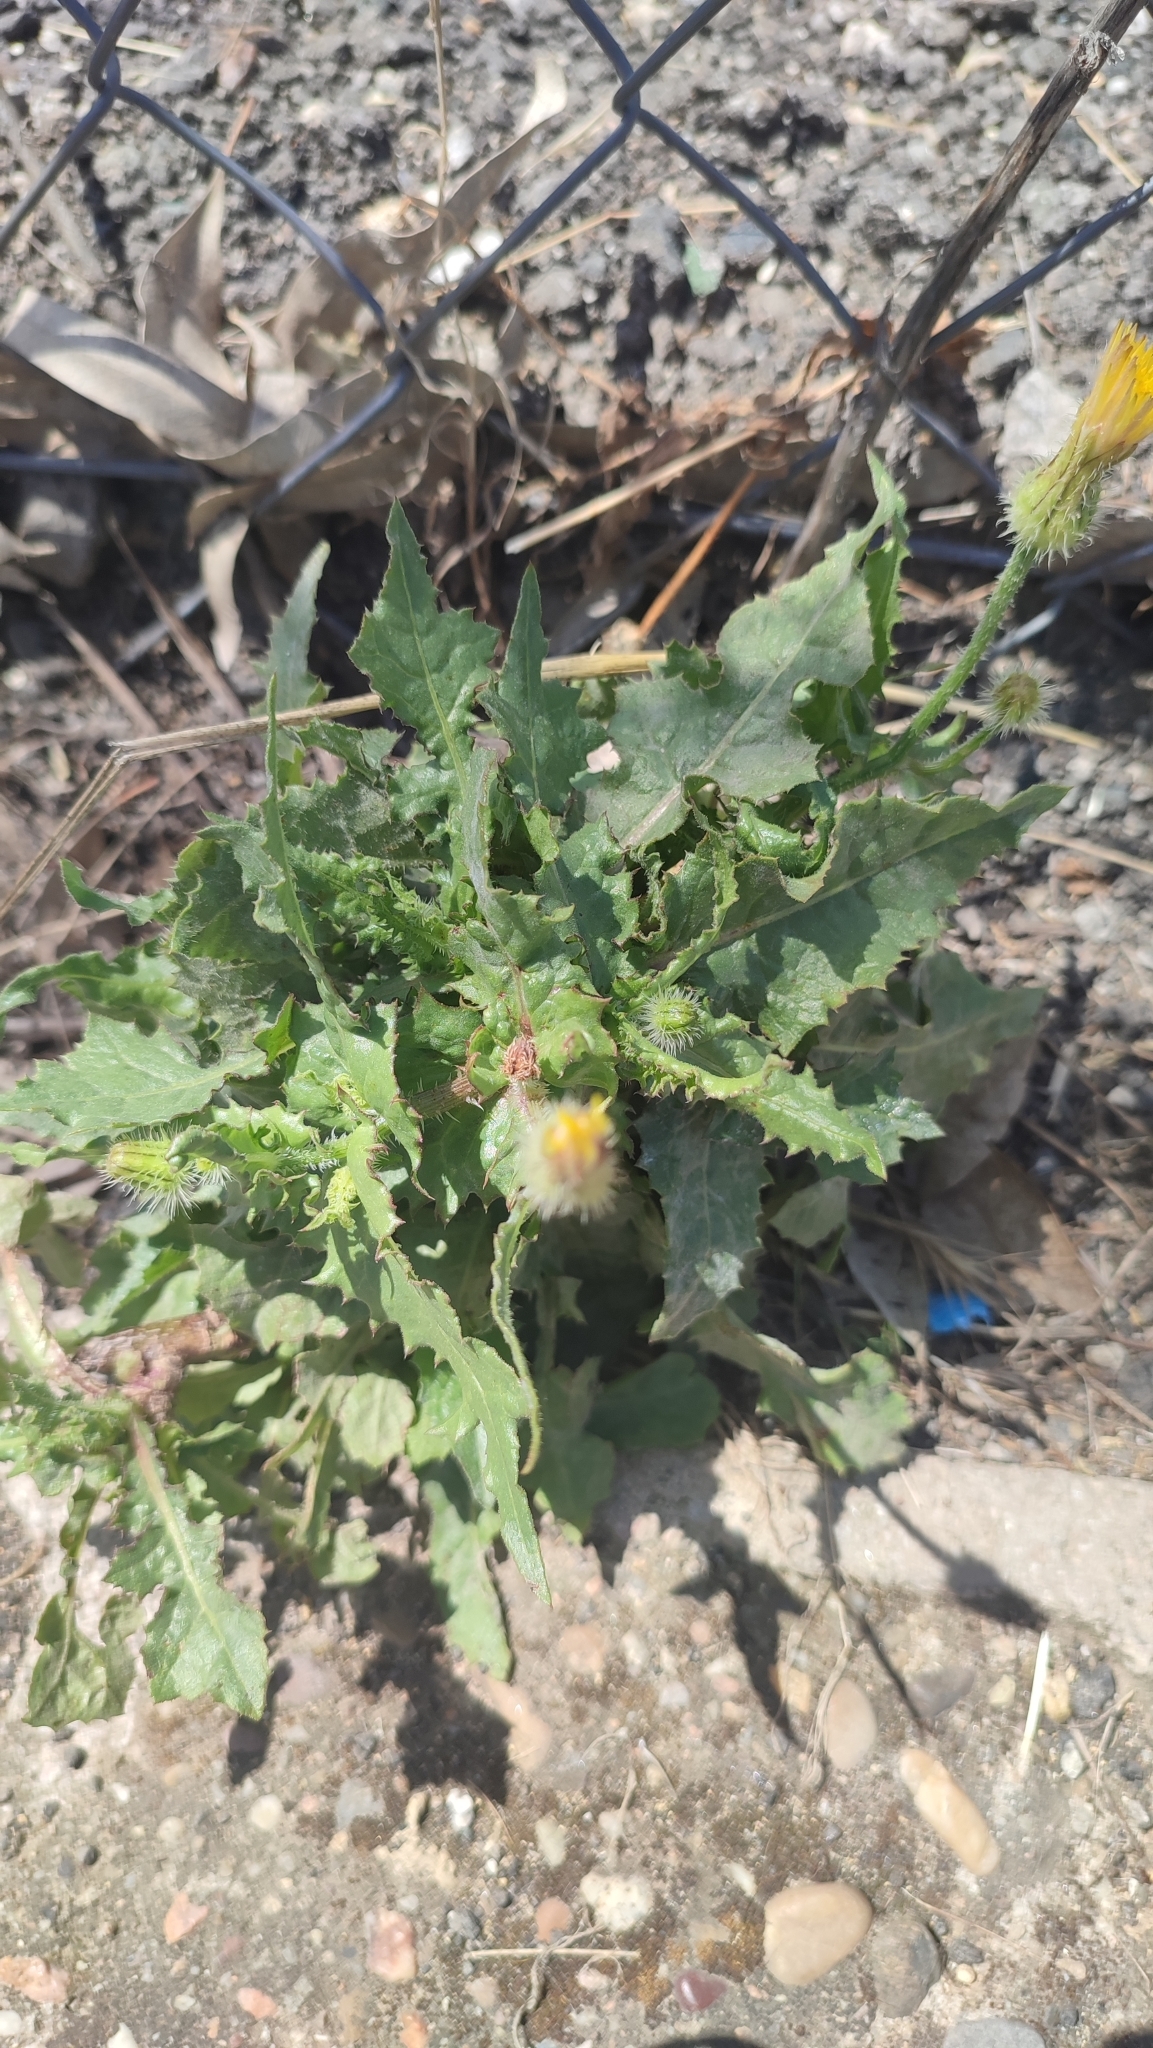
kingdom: Plantae
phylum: Tracheophyta
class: Magnoliopsida
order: Asterales
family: Asteraceae
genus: Urospermum
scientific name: Urospermum picroides
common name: False hawkbit
